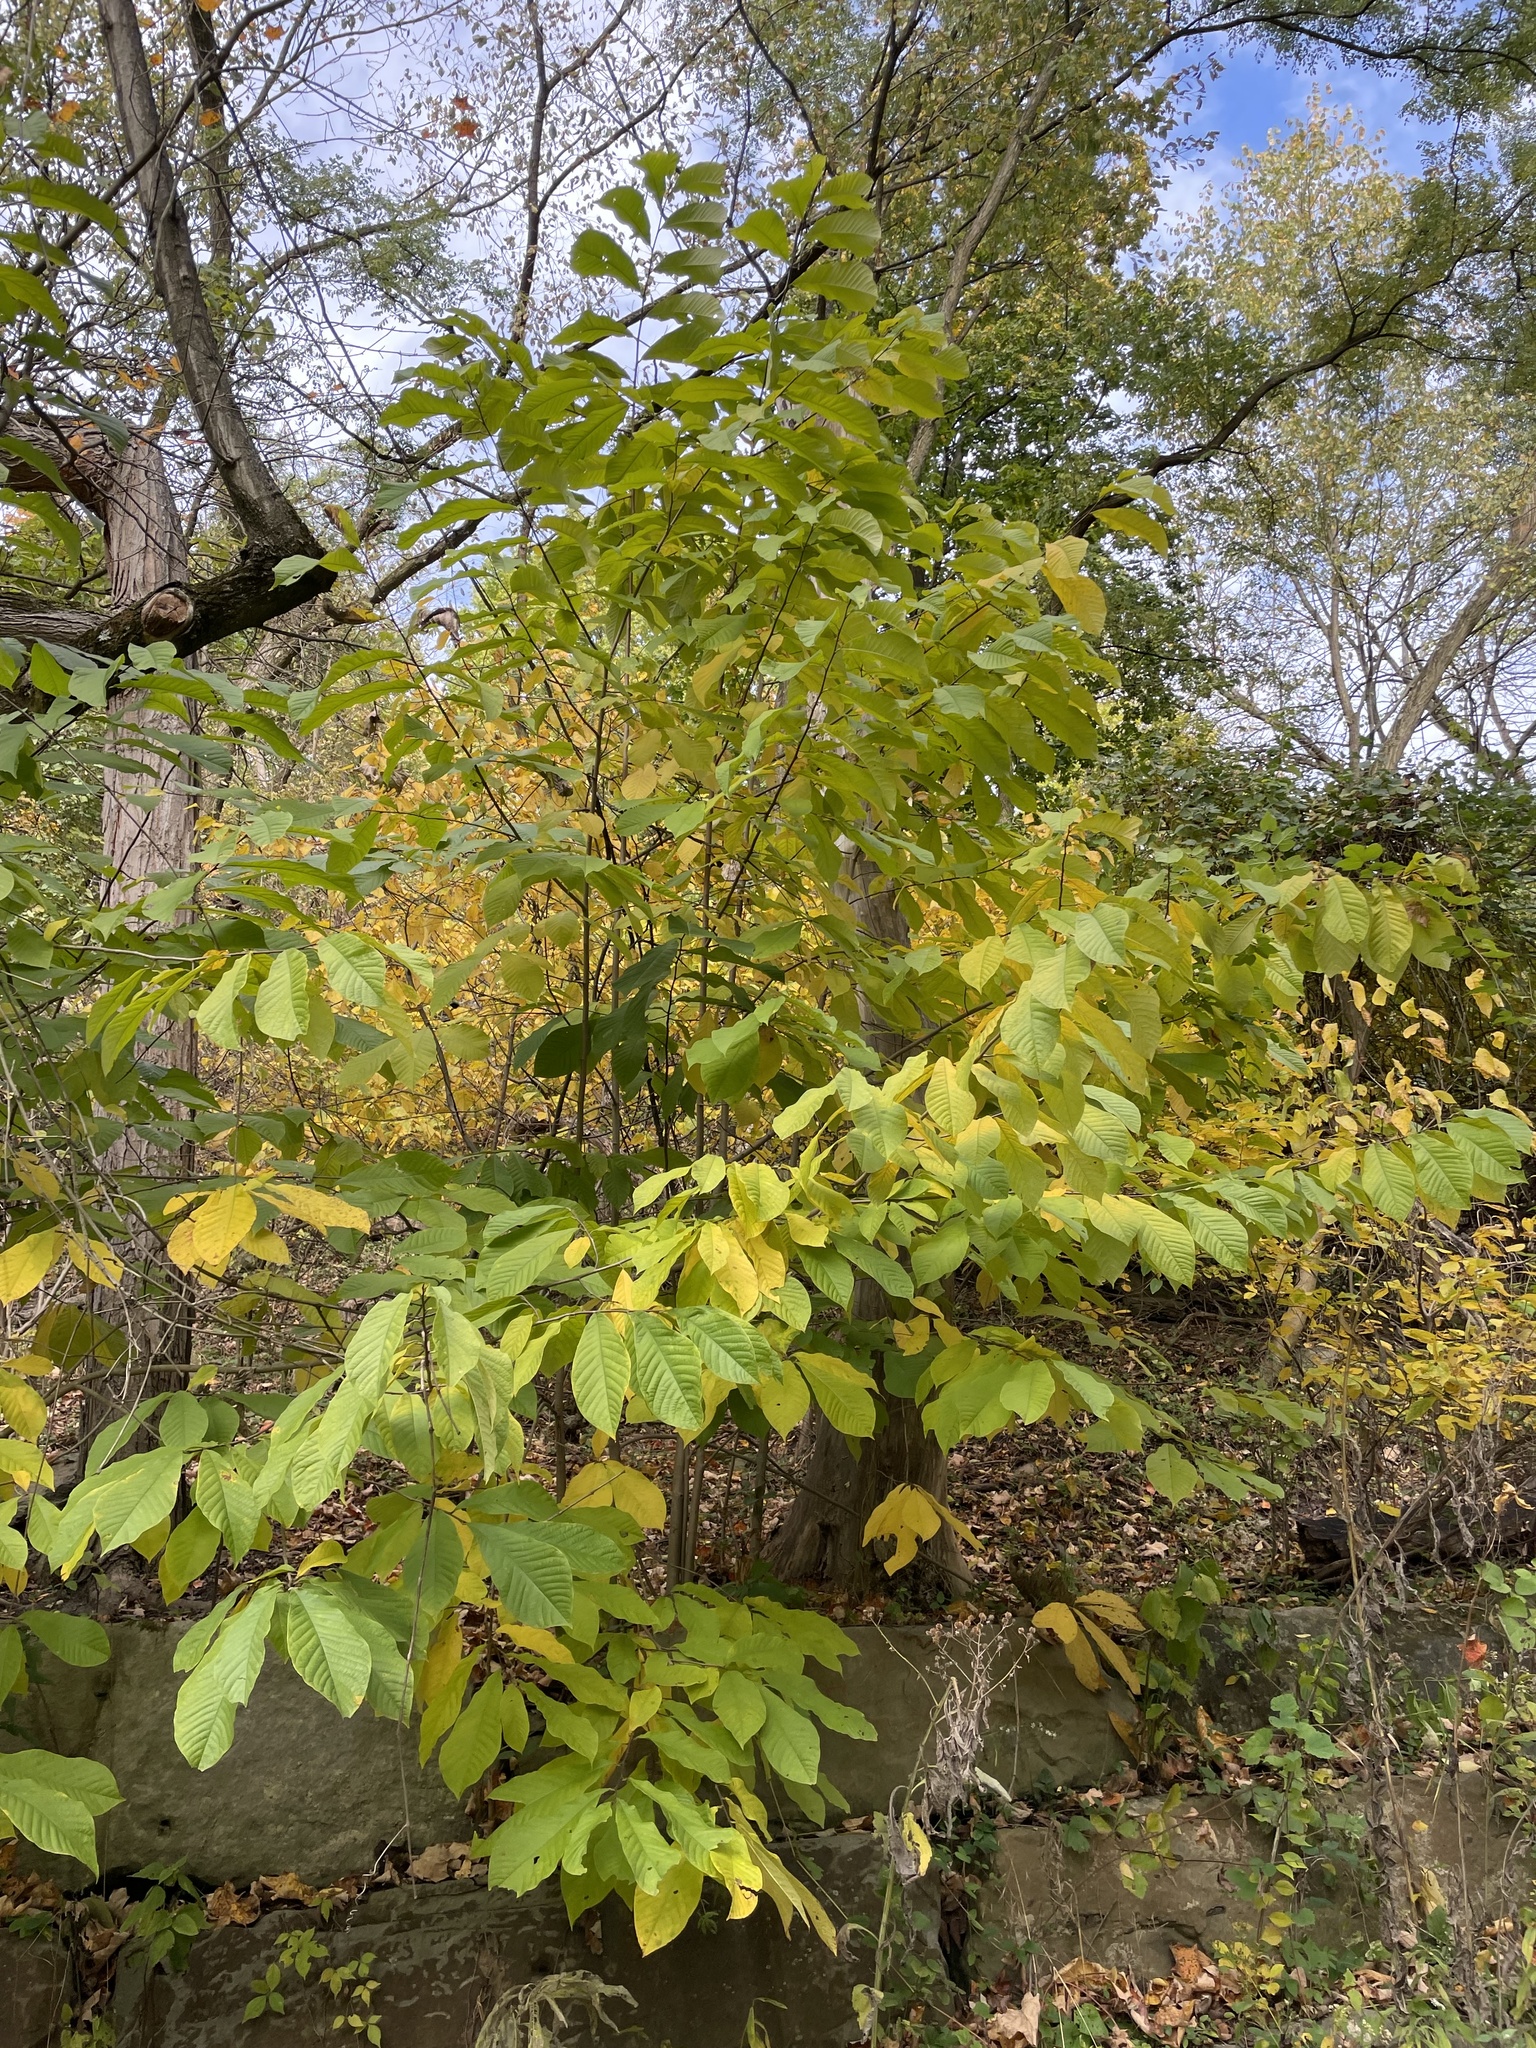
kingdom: Plantae
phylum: Tracheophyta
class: Magnoliopsida
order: Magnoliales
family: Annonaceae
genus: Asimina
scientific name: Asimina triloba
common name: Dog-banana
